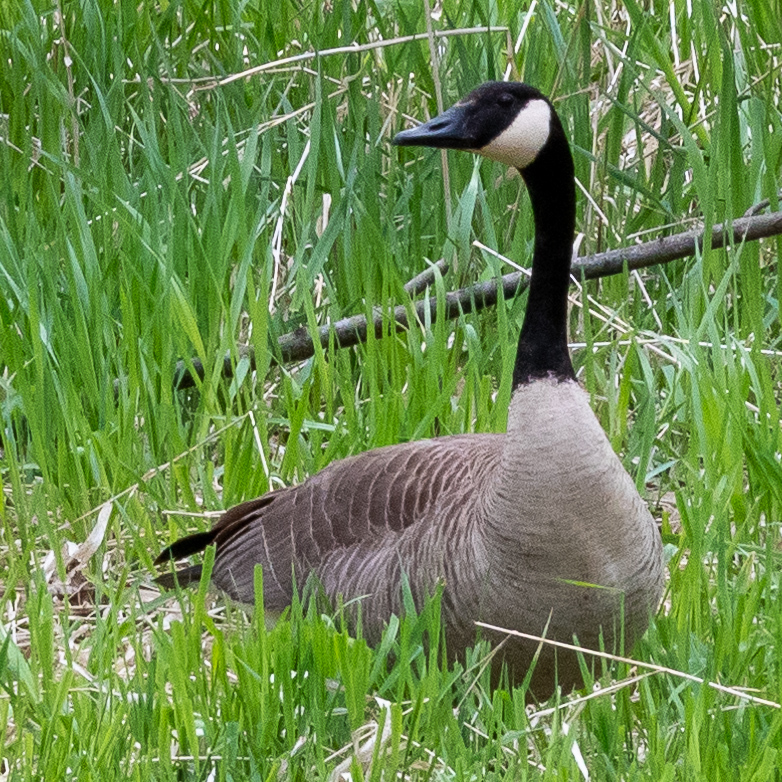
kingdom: Animalia
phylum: Chordata
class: Aves
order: Anseriformes
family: Anatidae
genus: Branta
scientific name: Branta canadensis
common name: Canada goose
